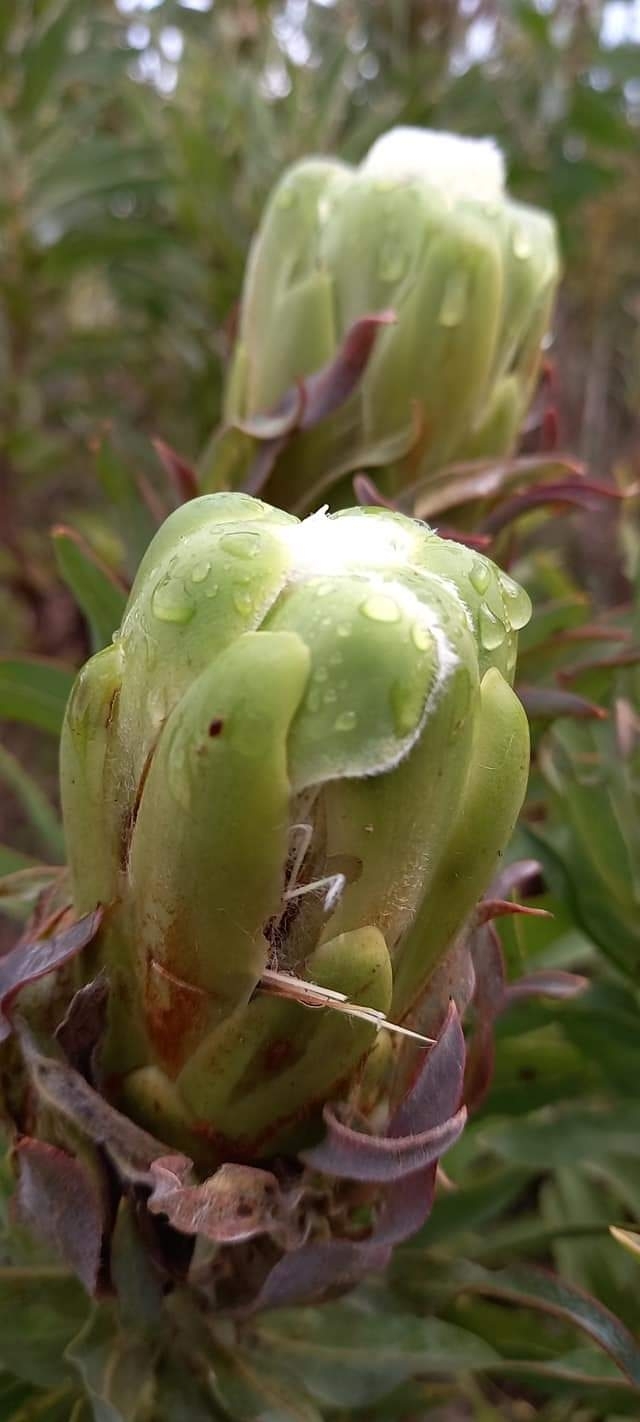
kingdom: Plantae
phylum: Tracheophyta
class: Magnoliopsida
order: Proteales
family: Proteaceae
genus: Protea
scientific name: Protea coronata
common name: Green sugarbush
